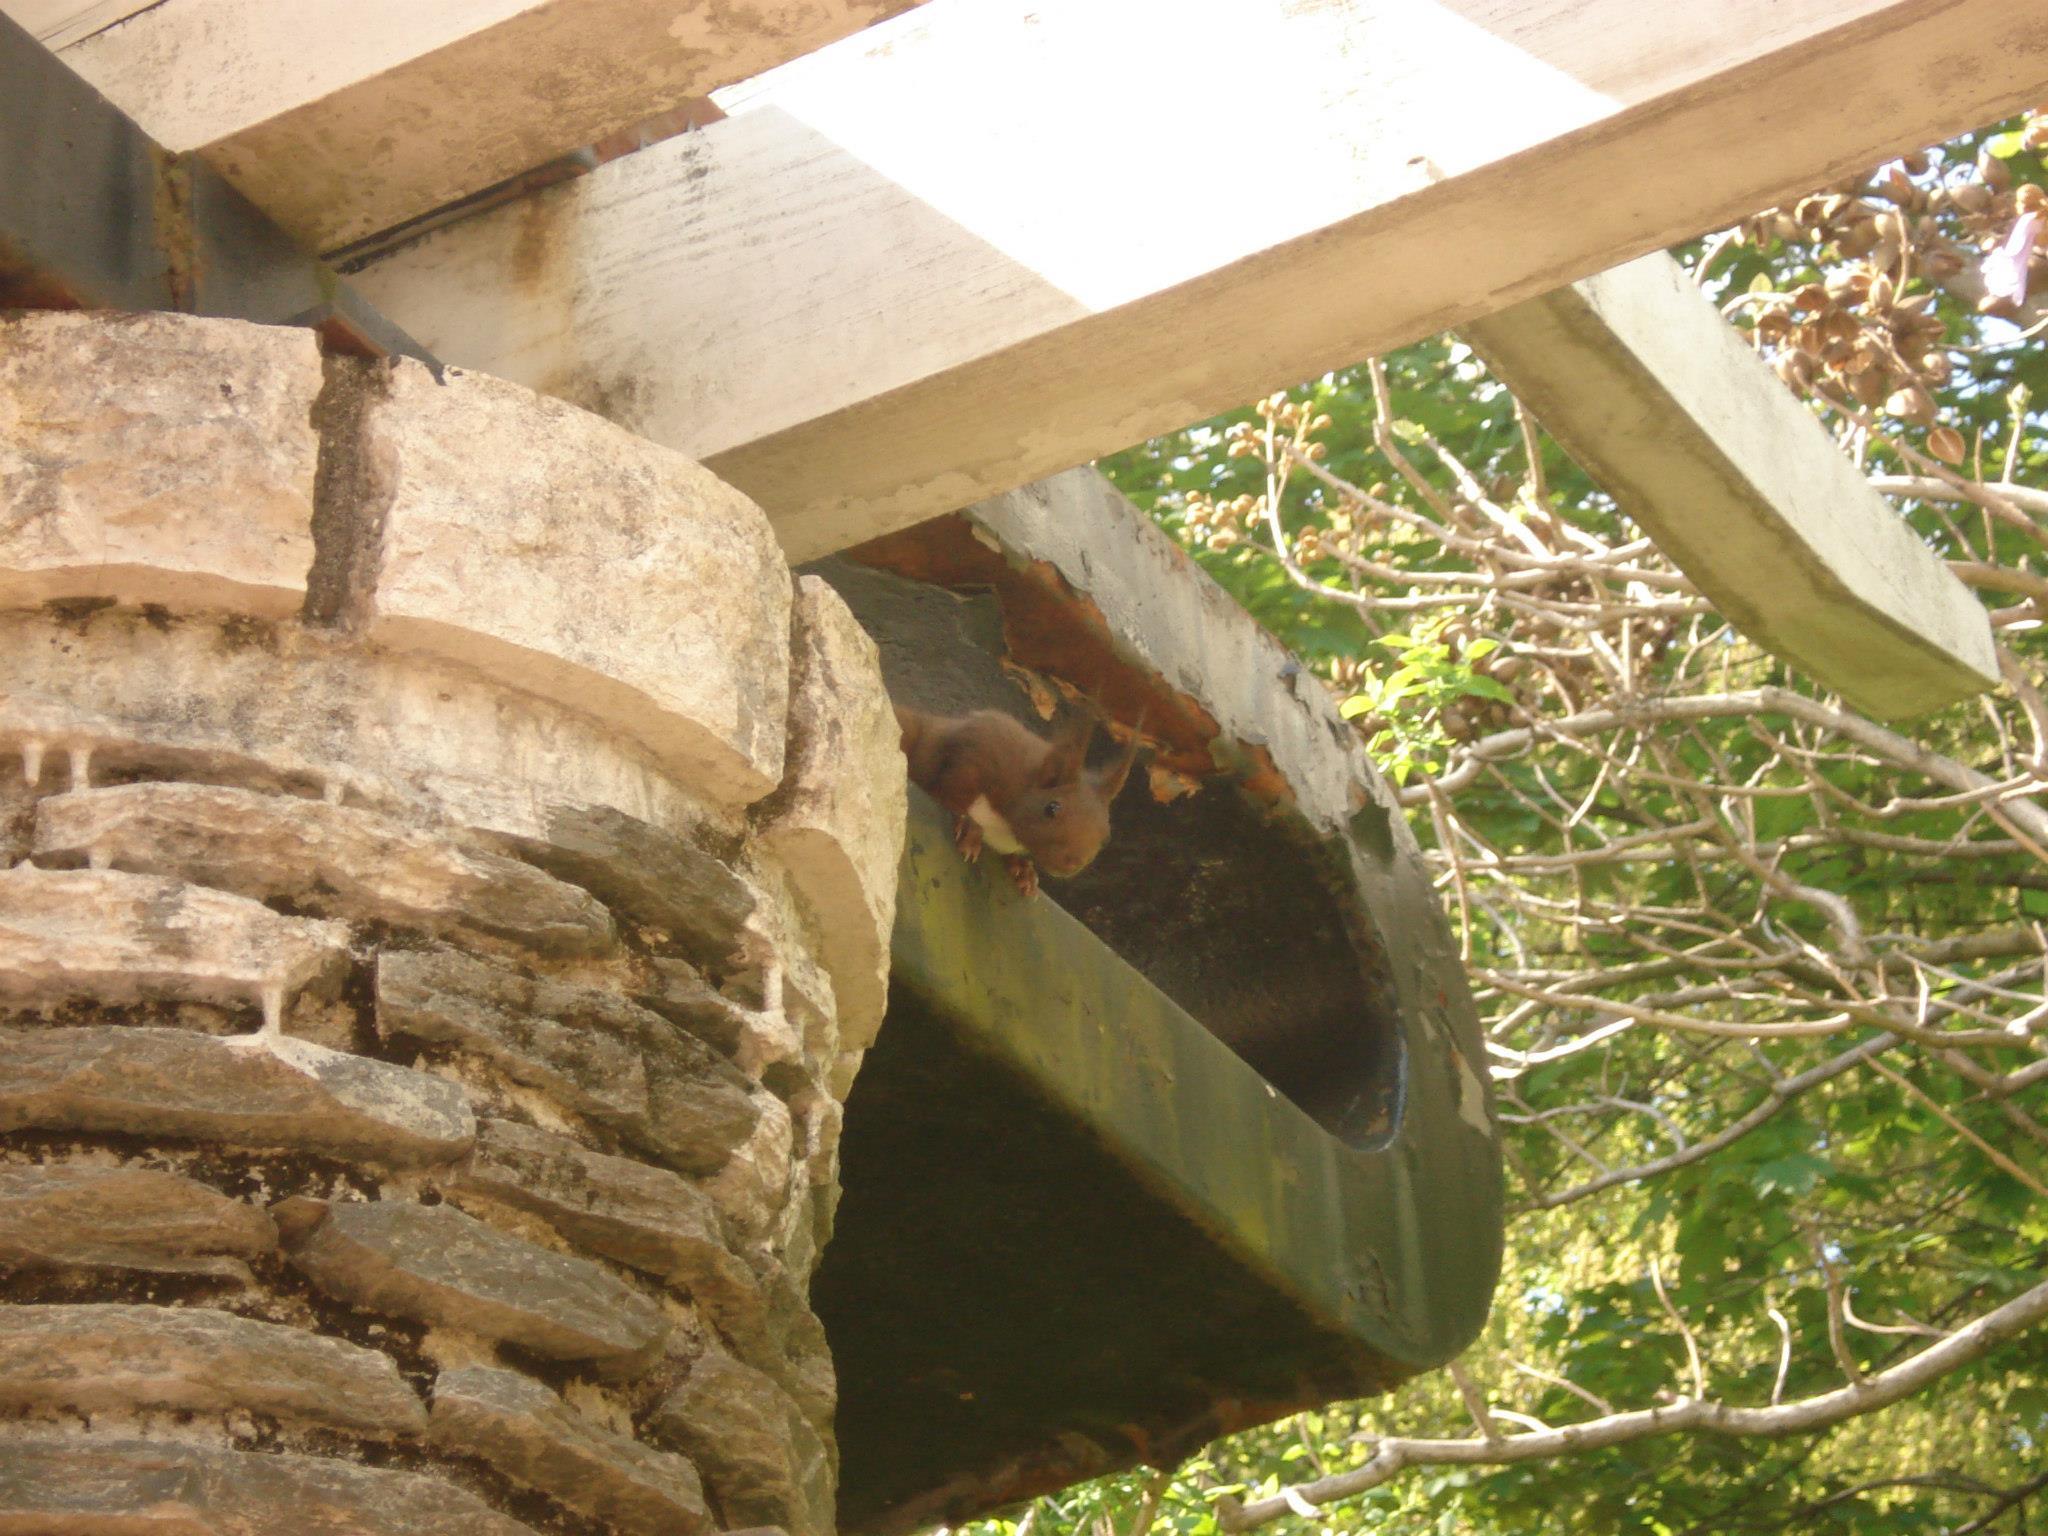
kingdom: Animalia
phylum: Chordata
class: Mammalia
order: Rodentia
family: Sciuridae
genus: Sciurus
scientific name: Sciurus vulgaris
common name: Eurasian red squirrel
